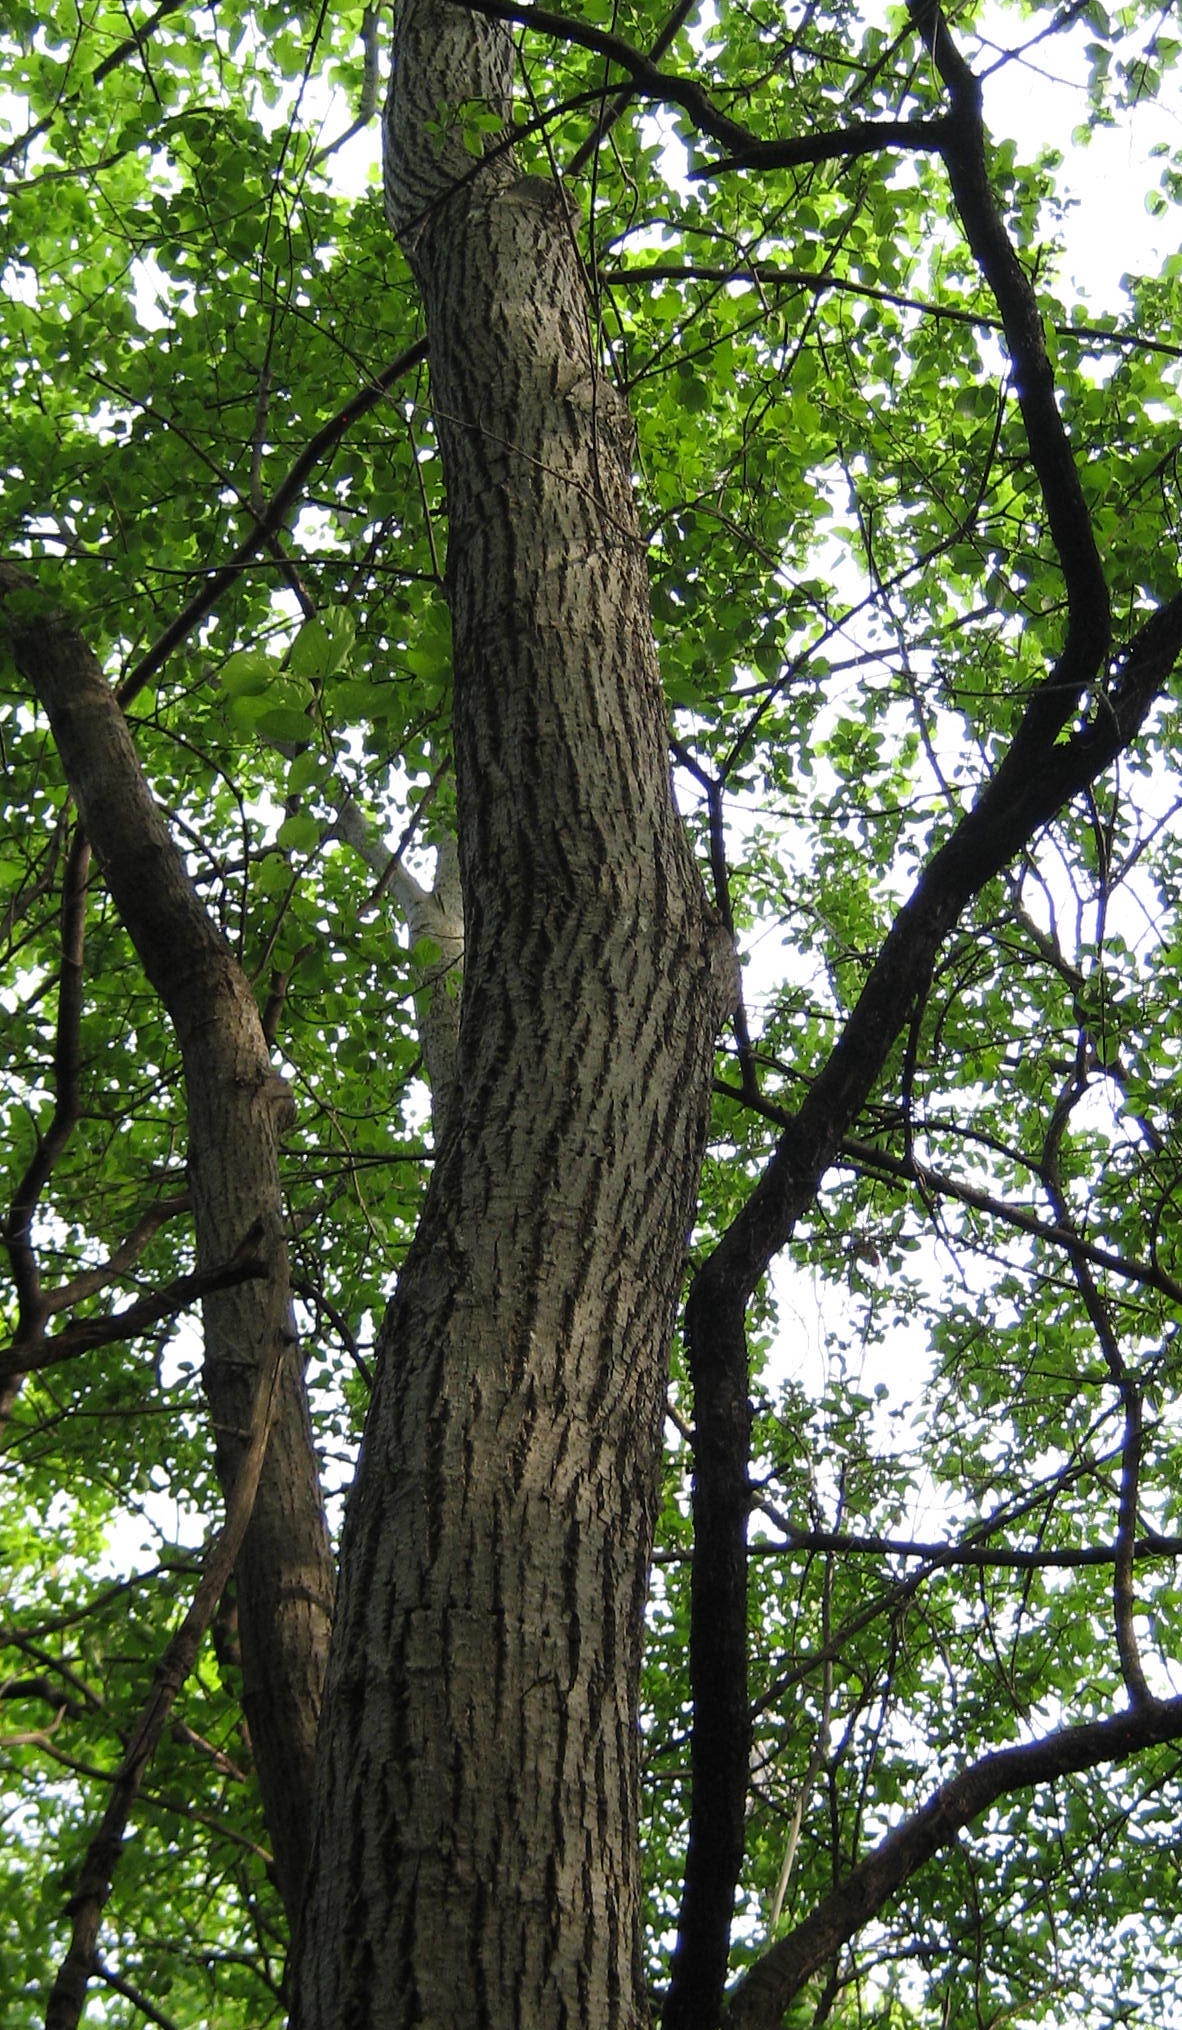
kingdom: Plantae
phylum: Tracheophyta
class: Magnoliopsida
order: Malvales
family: Malvaceae
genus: Tilia
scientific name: Tilia americana
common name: Basswood
